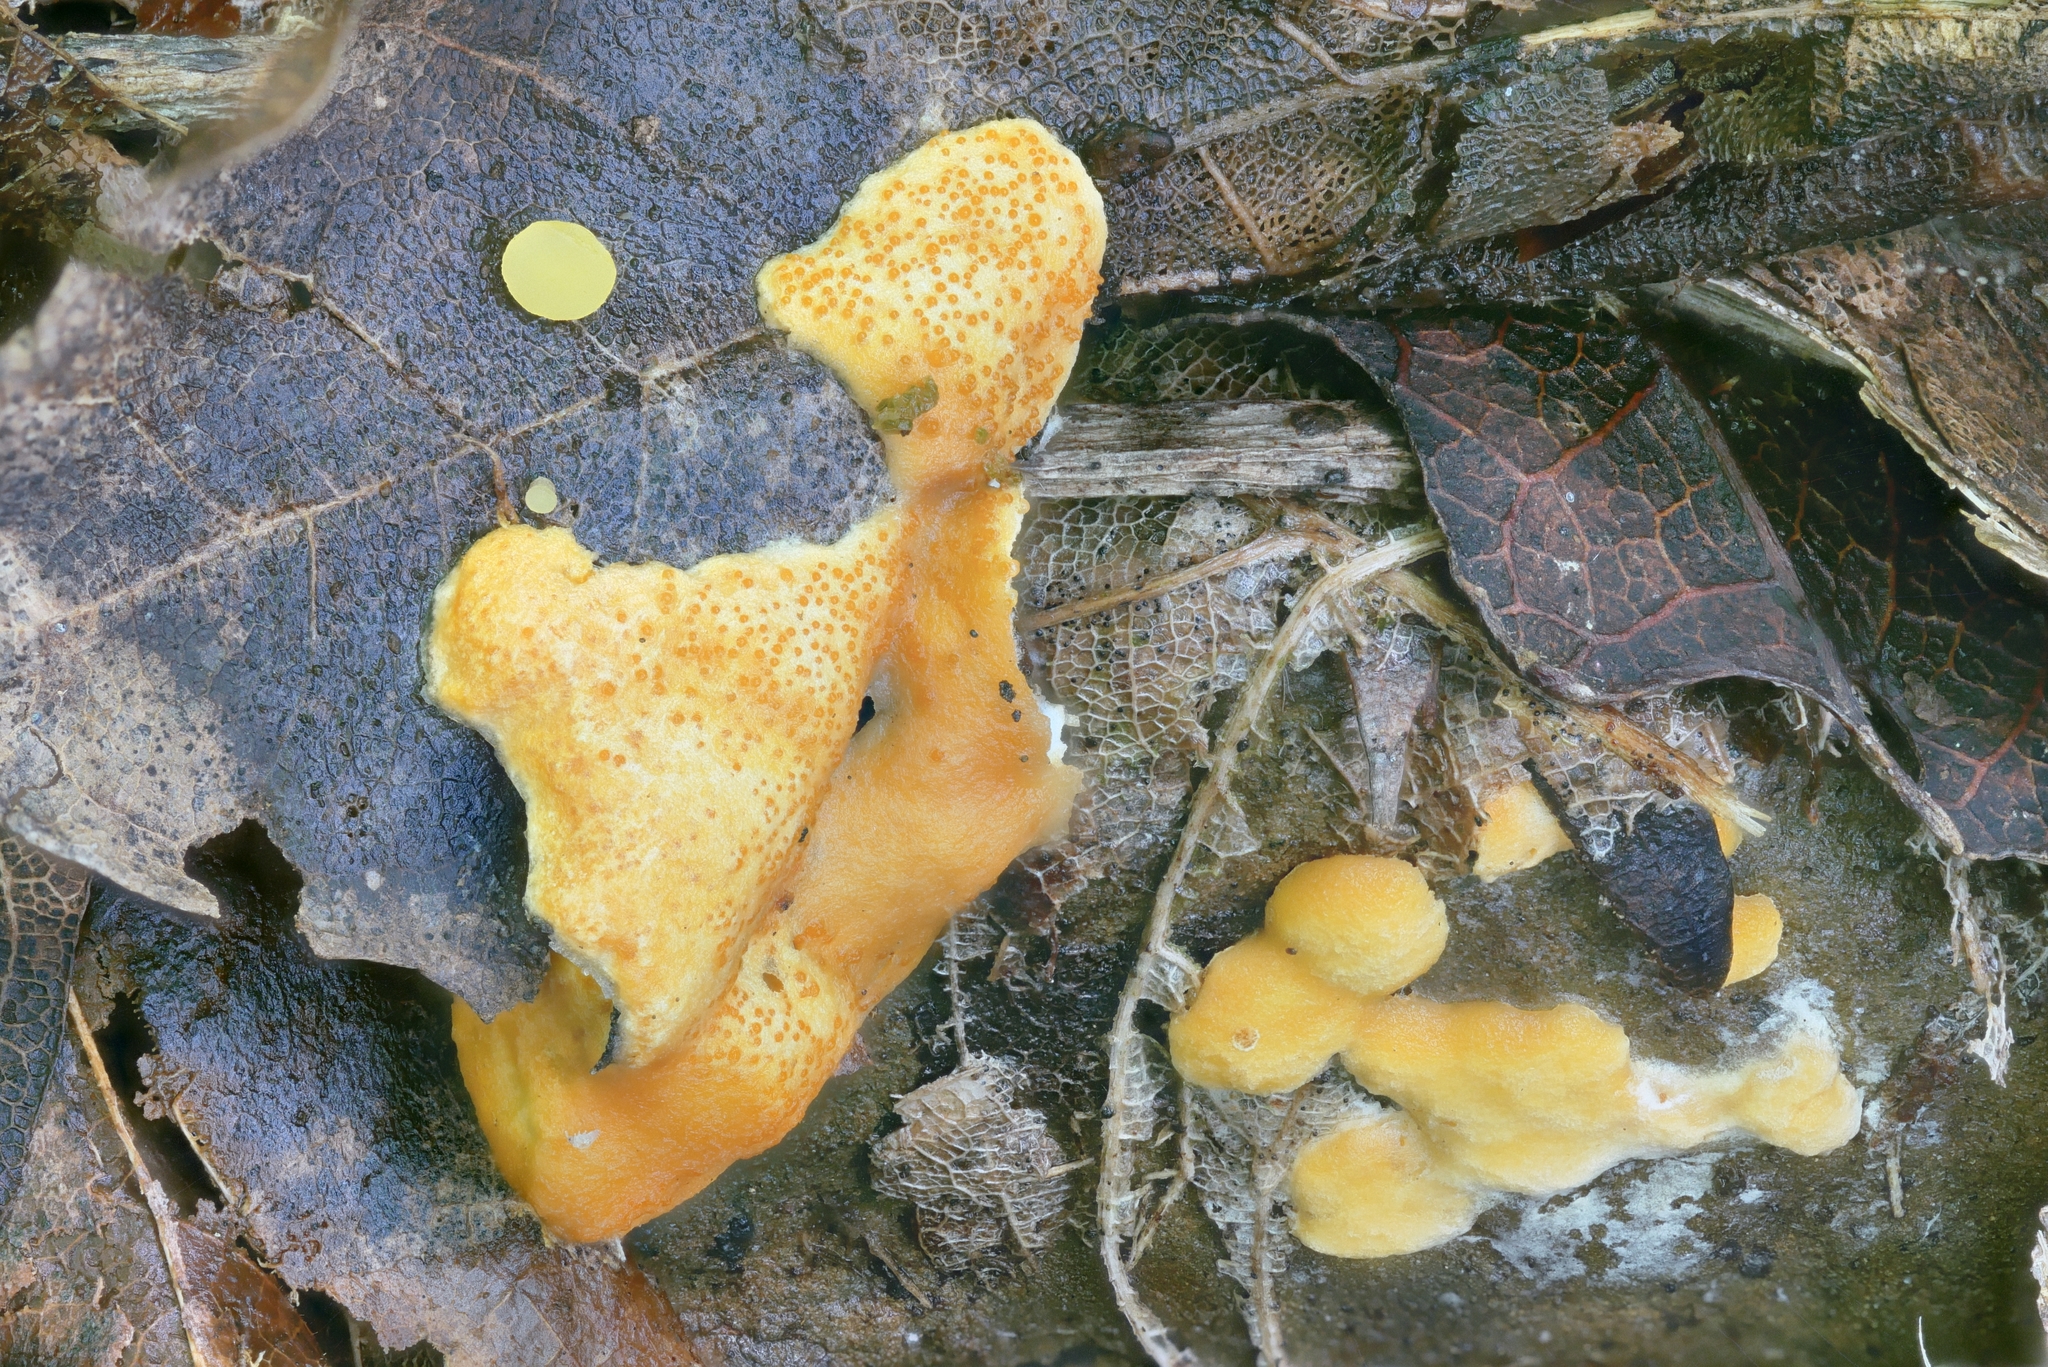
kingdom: Fungi
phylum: Ascomycota
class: Sordariomycetes
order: Hypocreales
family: Hypocreaceae
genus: Hypomyces
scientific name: Hypomyces armeniacus
